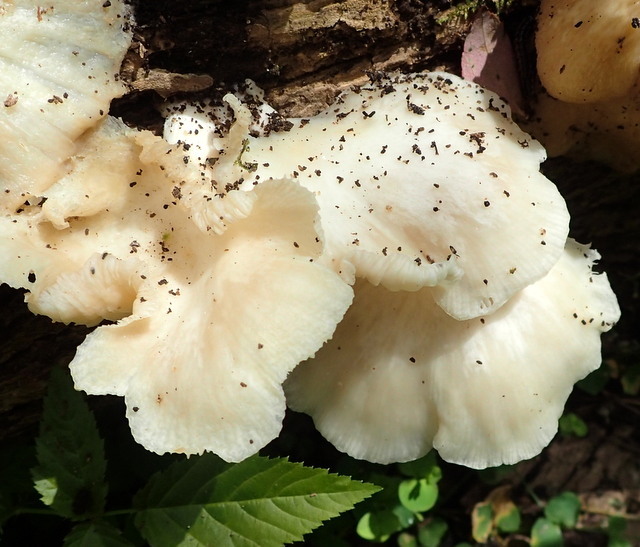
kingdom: Fungi
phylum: Basidiomycota
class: Agaricomycetes
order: Agaricales
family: Pleurotaceae
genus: Pleurotus
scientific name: Pleurotus pulmonarius
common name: Pale oyster
